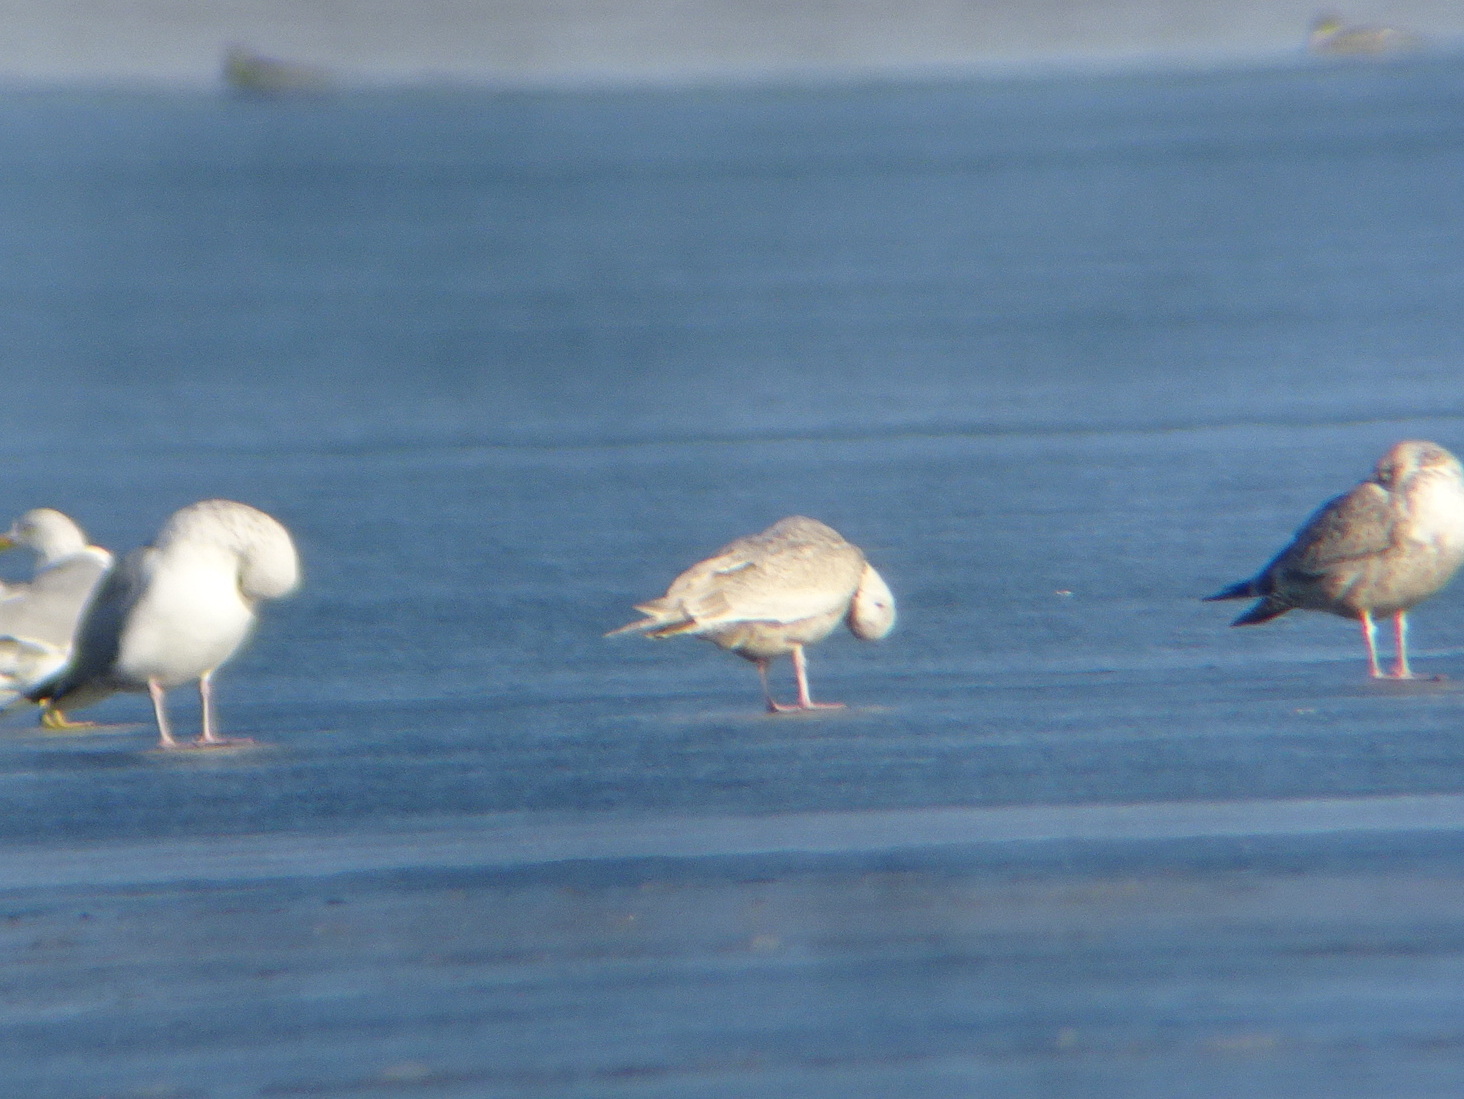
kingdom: Animalia
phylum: Chordata
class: Aves
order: Charadriiformes
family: Laridae
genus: Larus
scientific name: Larus glaucoides
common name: Iceland gull
